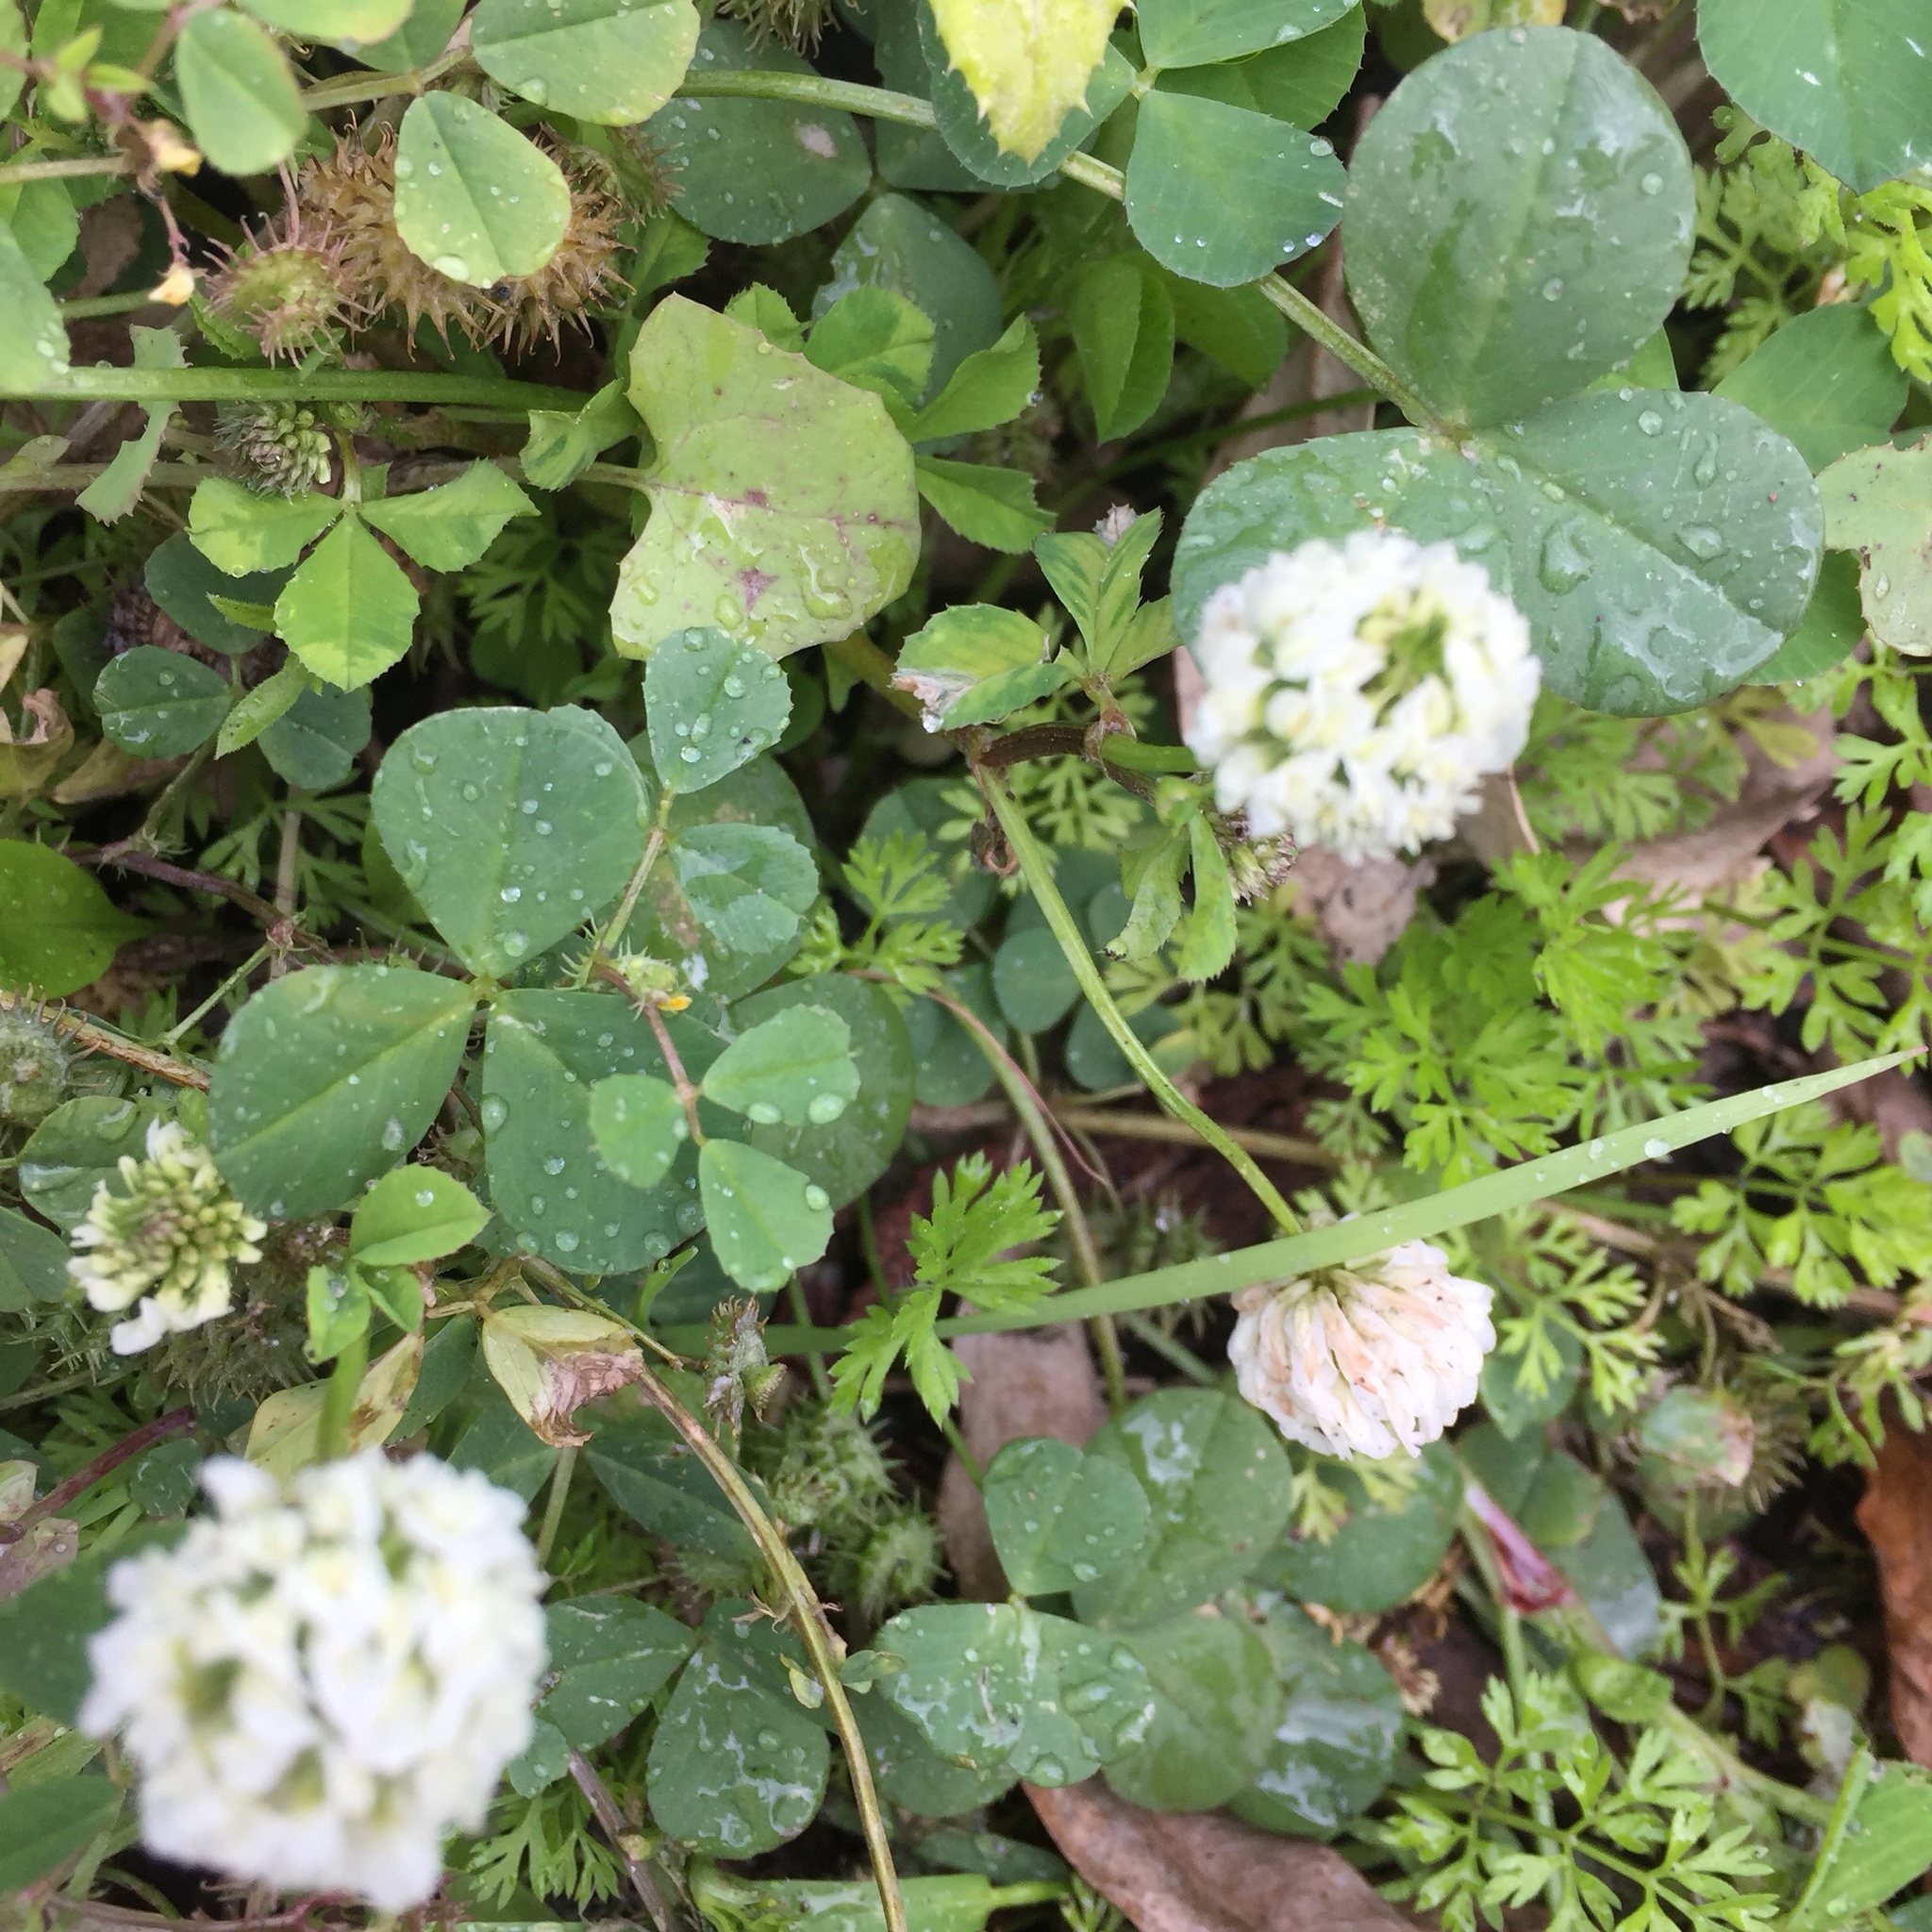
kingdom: Plantae
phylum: Tracheophyta
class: Magnoliopsida
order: Fabales
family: Fabaceae
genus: Trifolium
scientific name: Trifolium nigrescens
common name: Small white clover
